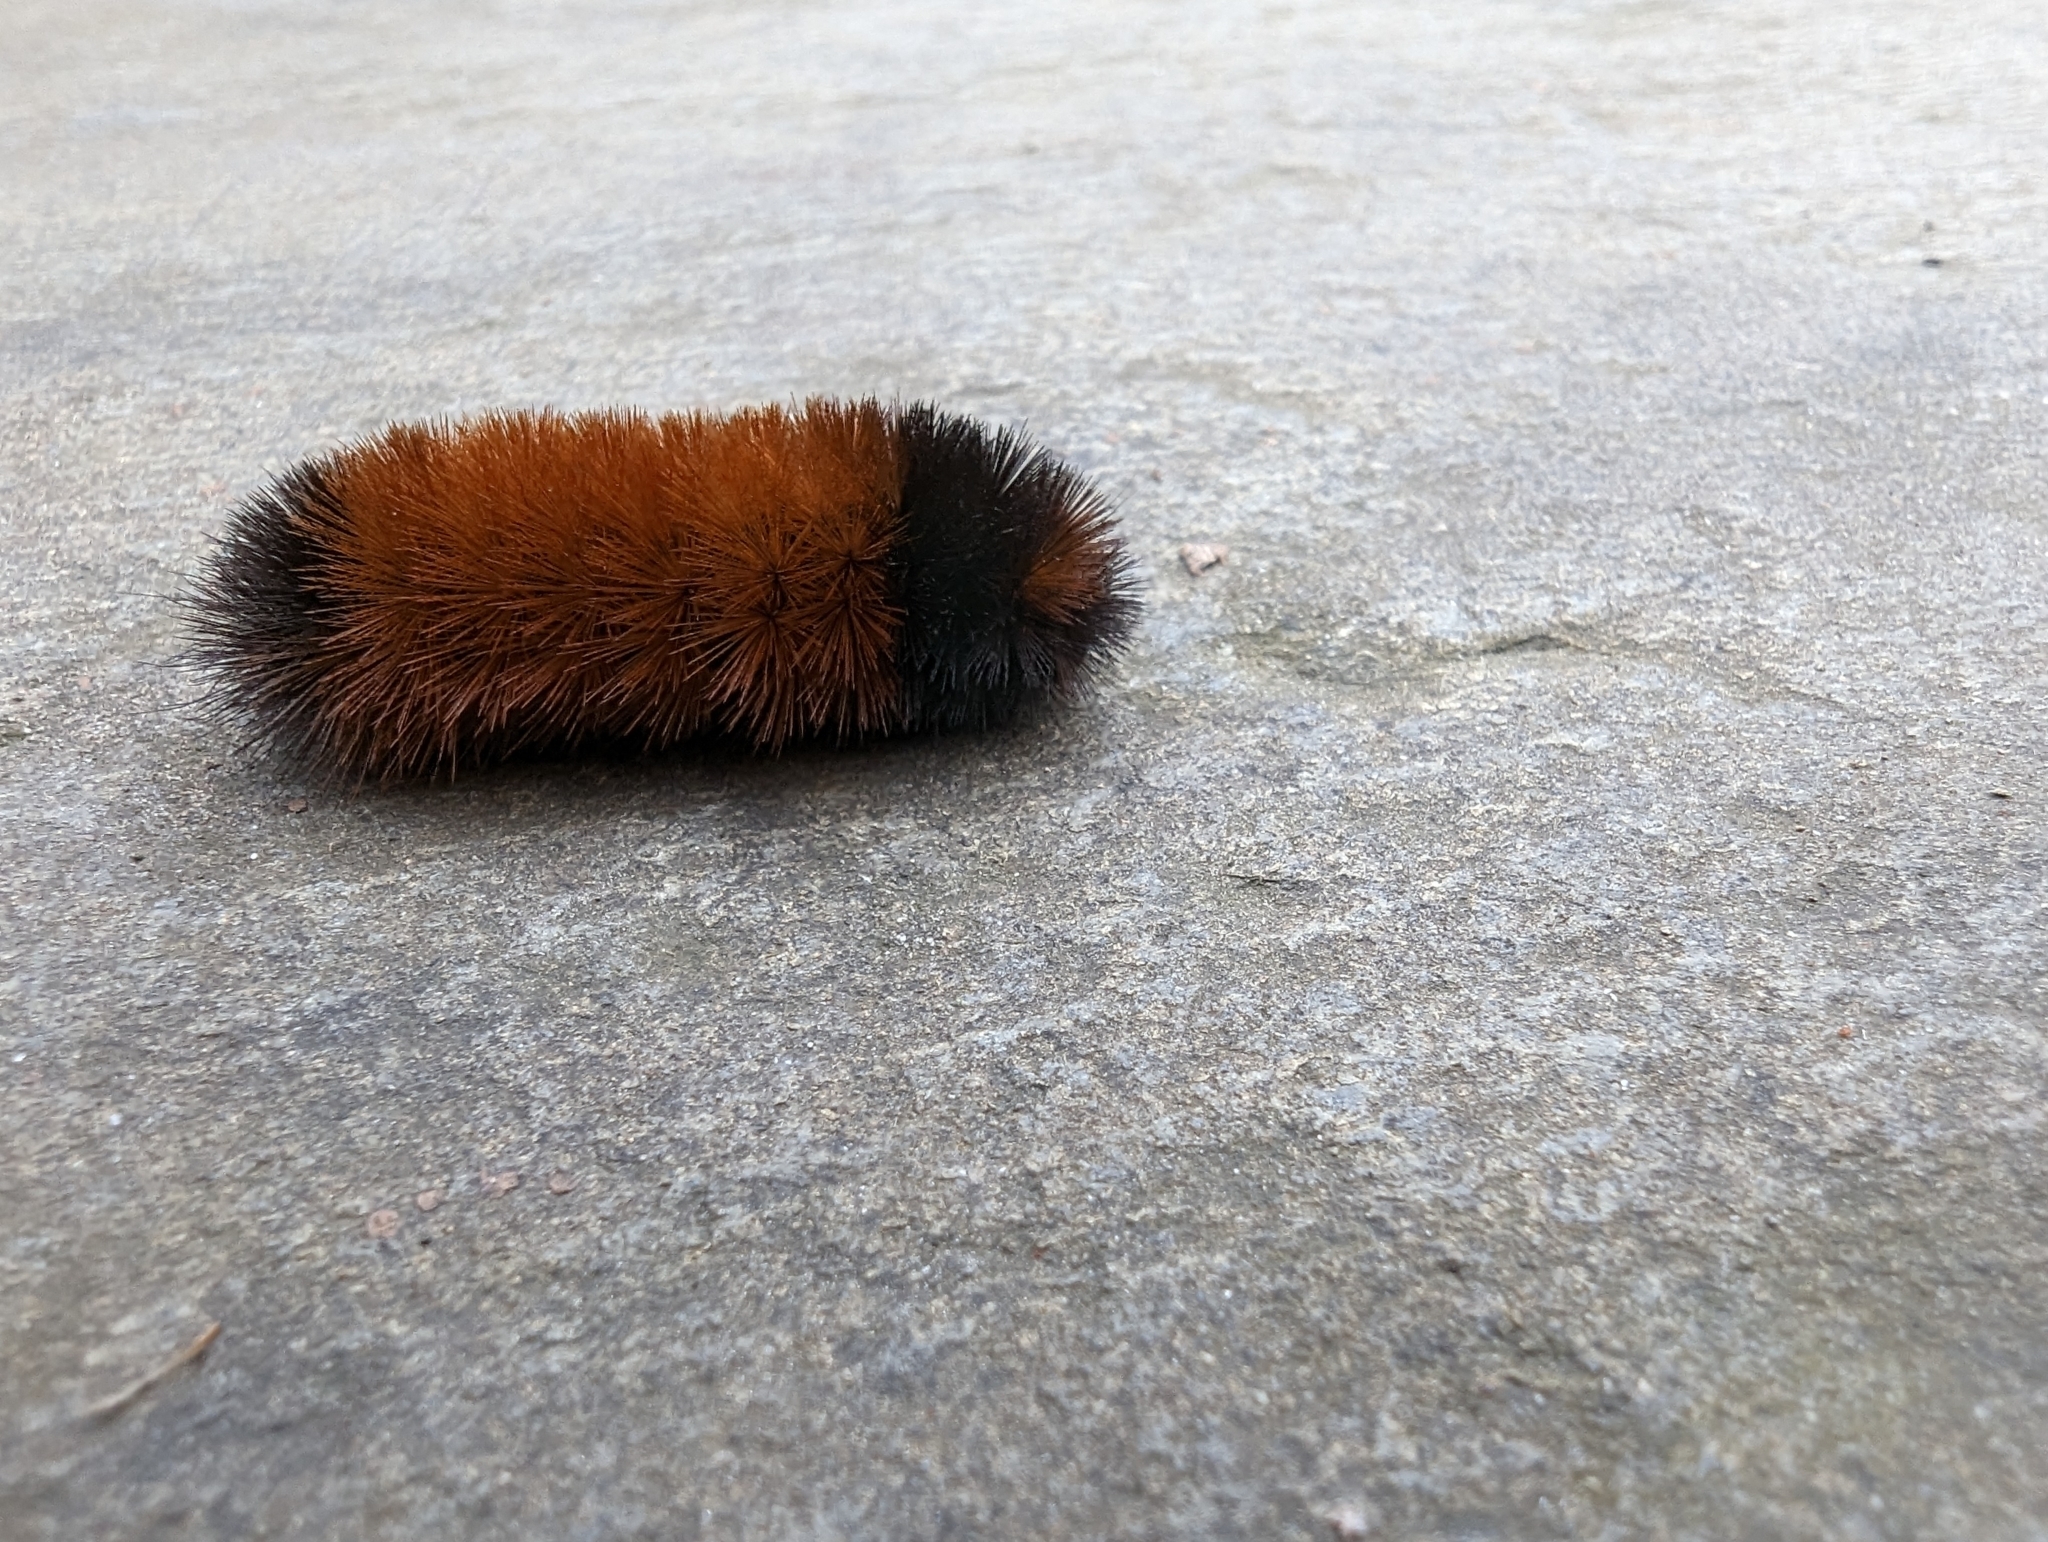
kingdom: Animalia
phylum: Arthropoda
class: Insecta
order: Lepidoptera
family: Erebidae
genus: Pyrrharctia
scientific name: Pyrrharctia isabella
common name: Isabella tiger moth
